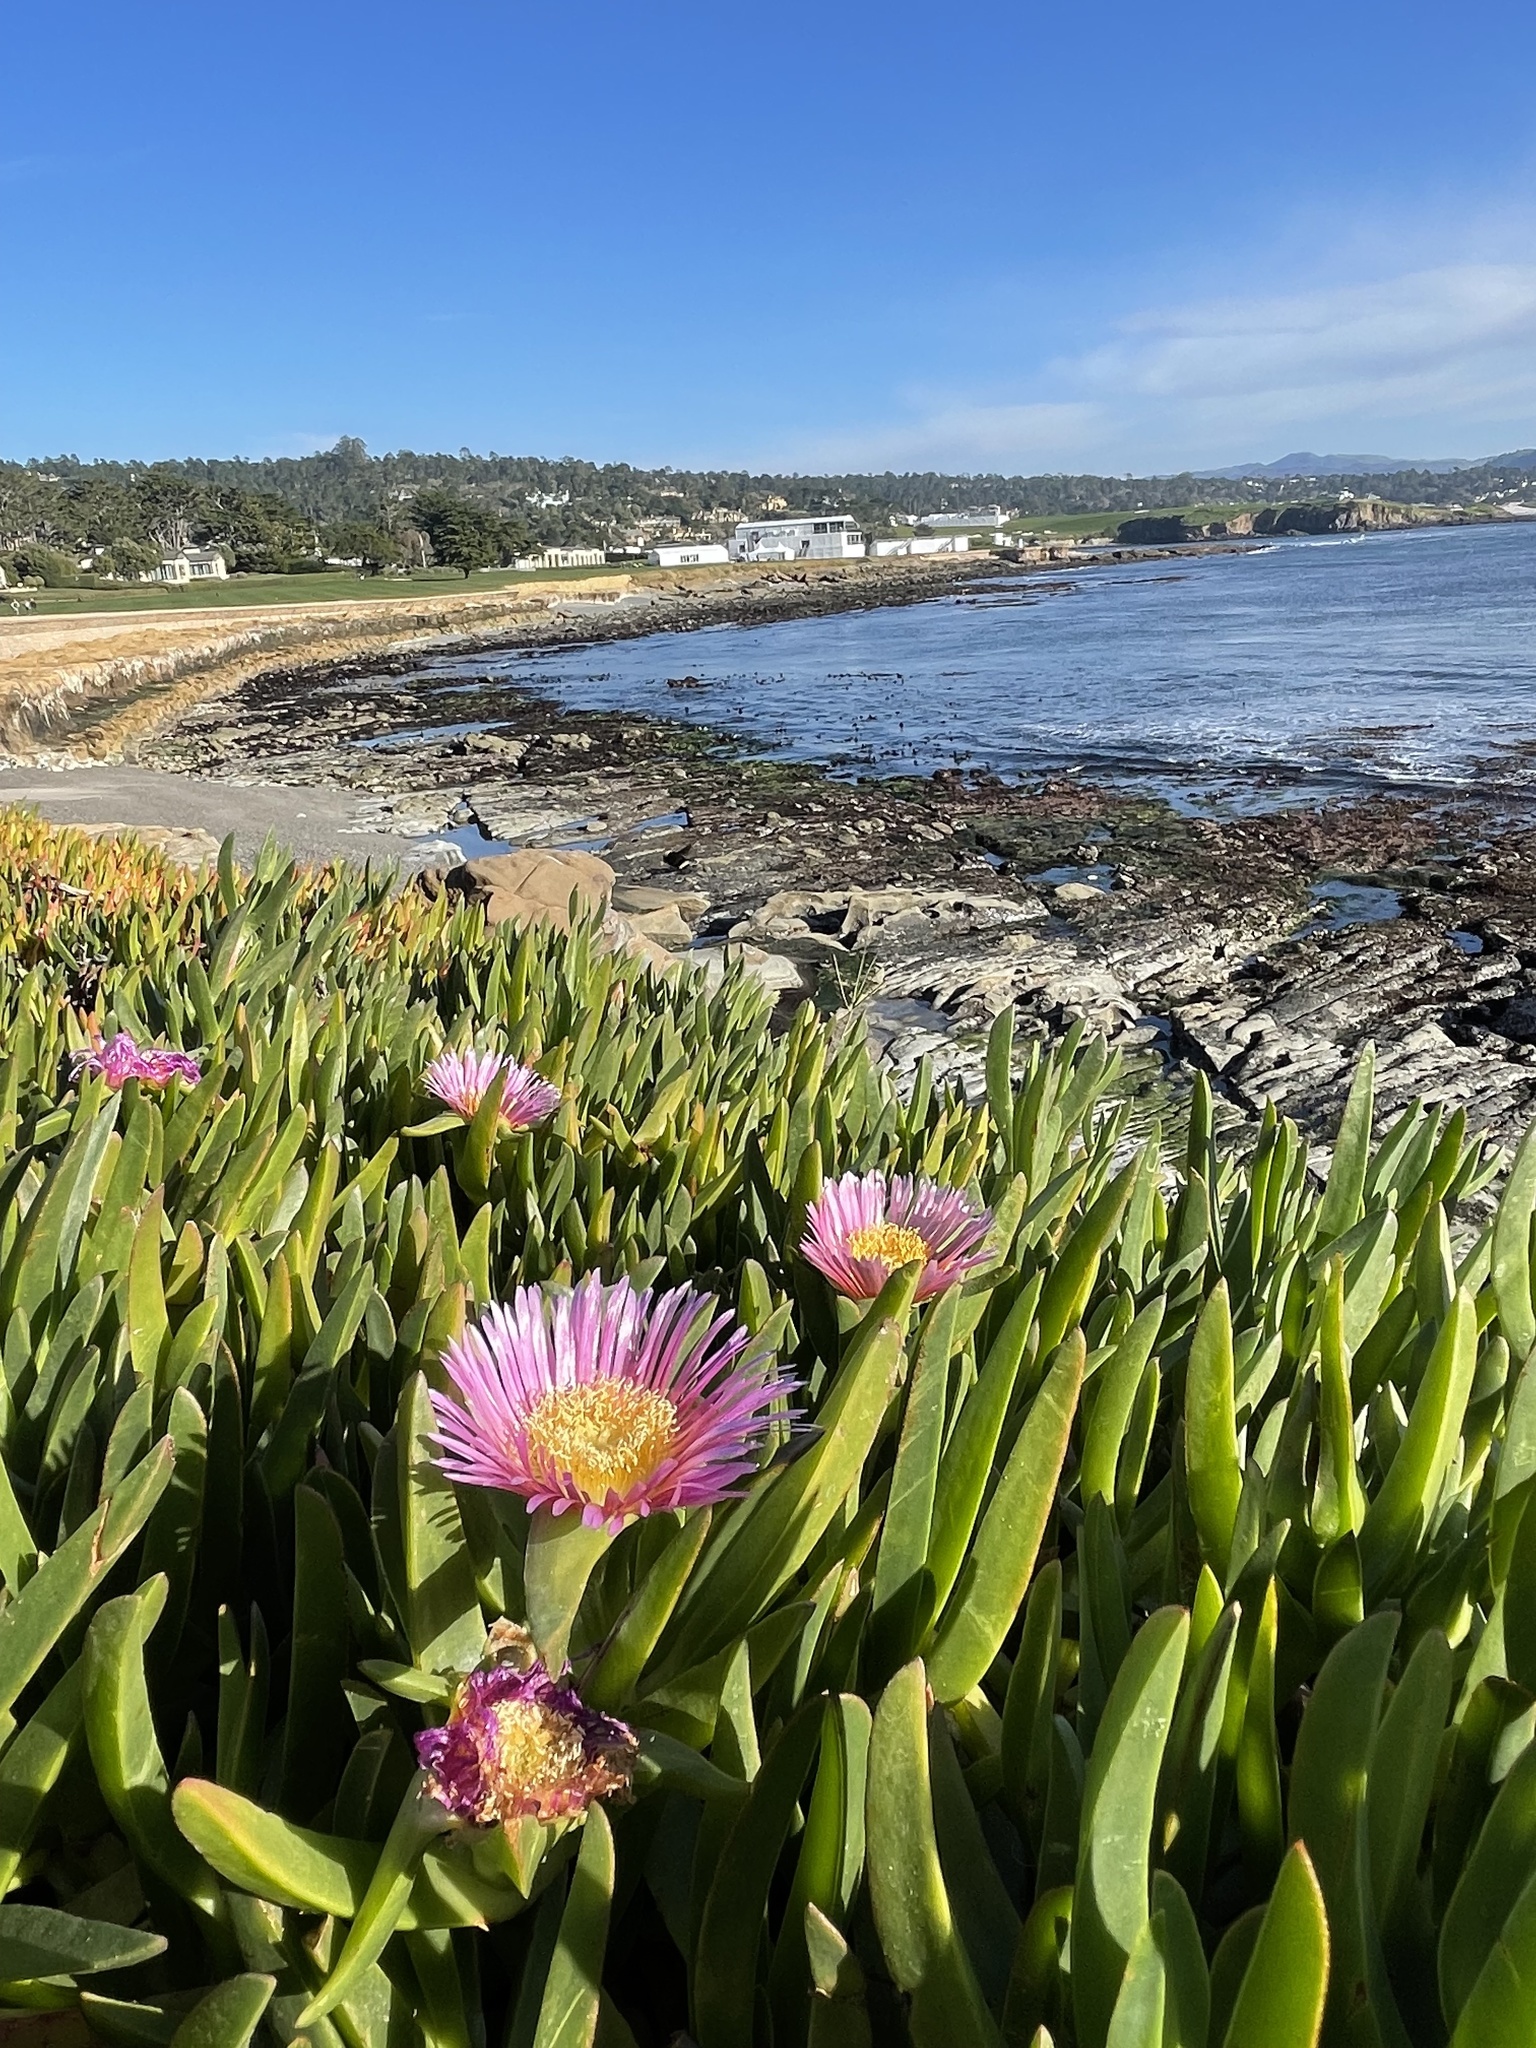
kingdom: Plantae
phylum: Tracheophyta
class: Magnoliopsida
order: Caryophyllales
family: Aizoaceae
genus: Carpobrotus
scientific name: Carpobrotus chilensis
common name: Sea fig
